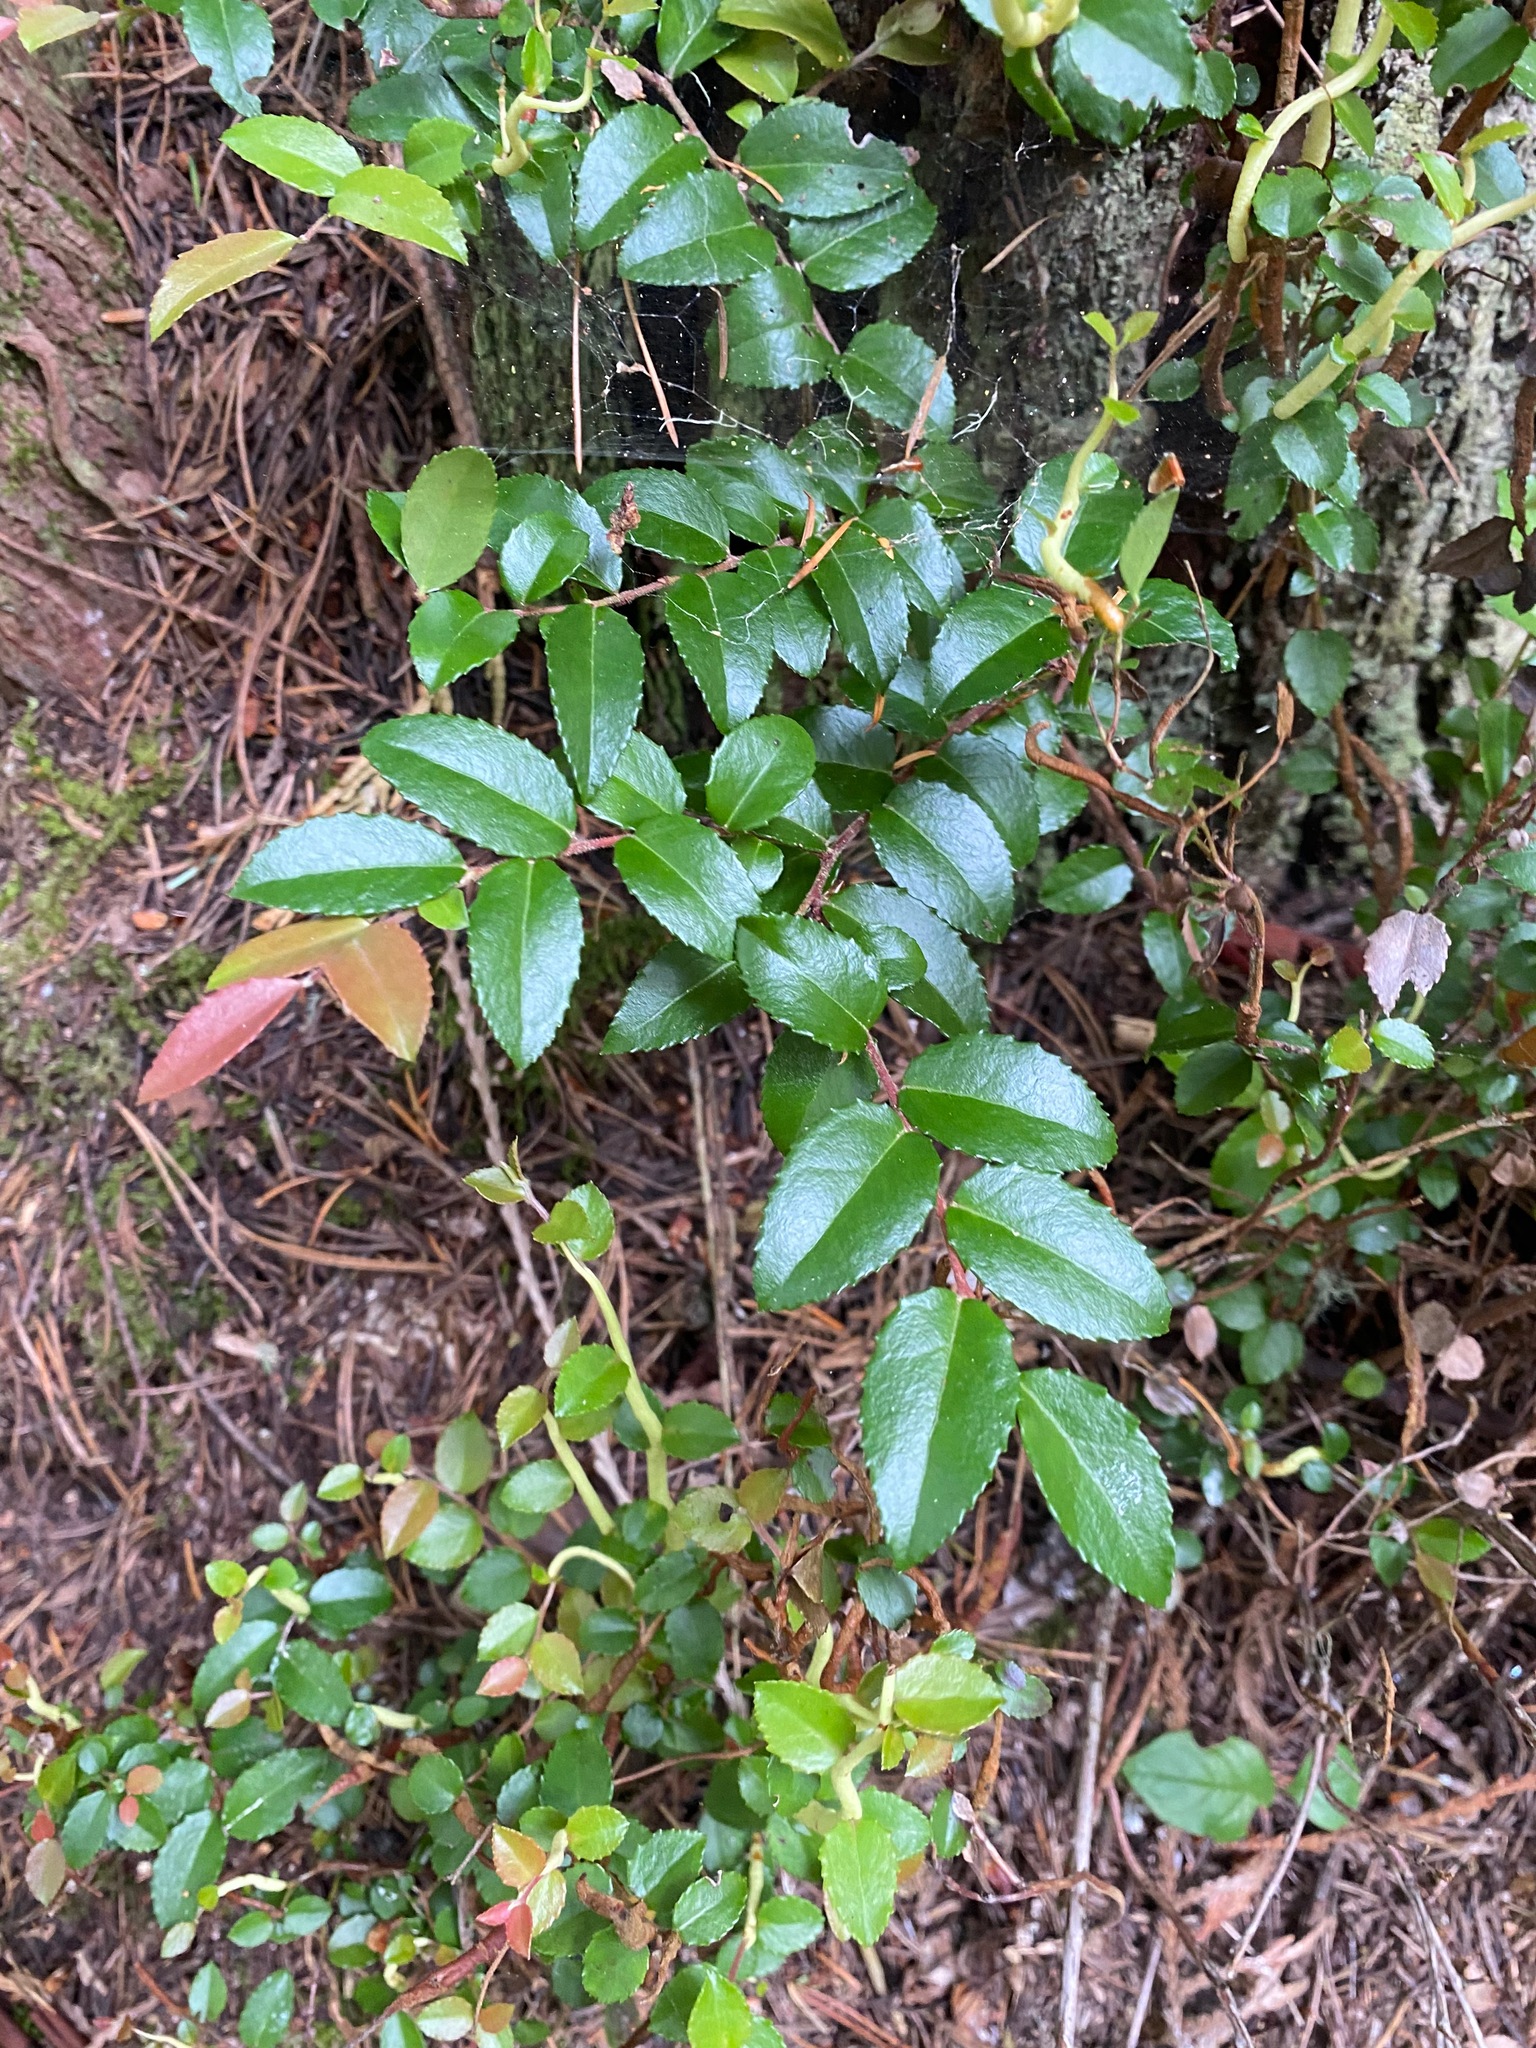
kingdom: Plantae
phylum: Tracheophyta
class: Magnoliopsida
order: Ericales
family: Ericaceae
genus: Vaccinium
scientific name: Vaccinium ovatum
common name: California-huckleberry
